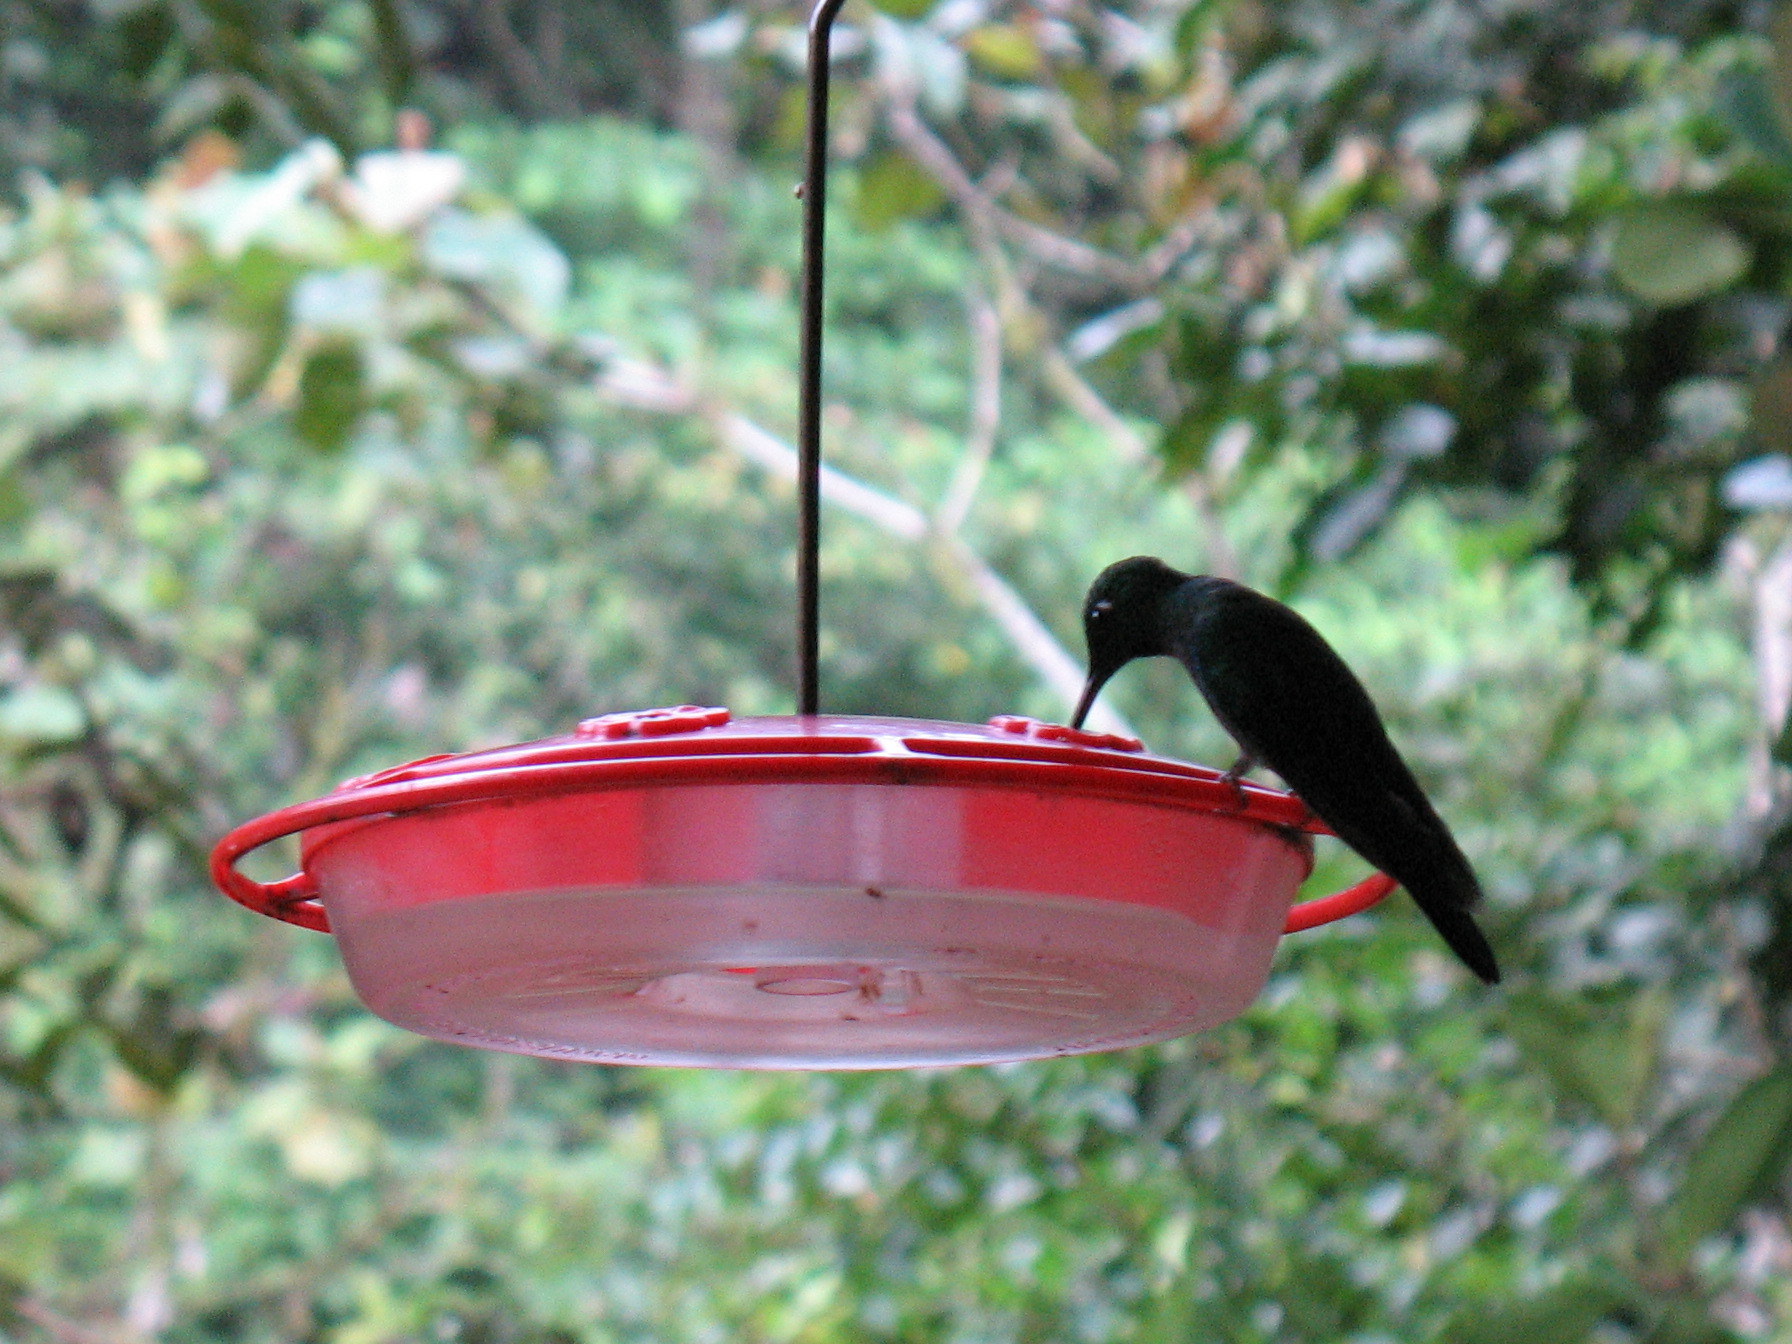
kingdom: Animalia
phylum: Chordata
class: Aves
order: Apodiformes
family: Trochilidae
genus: Heliodoxa
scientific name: Heliodoxa imperatrix
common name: Empress brilliant
